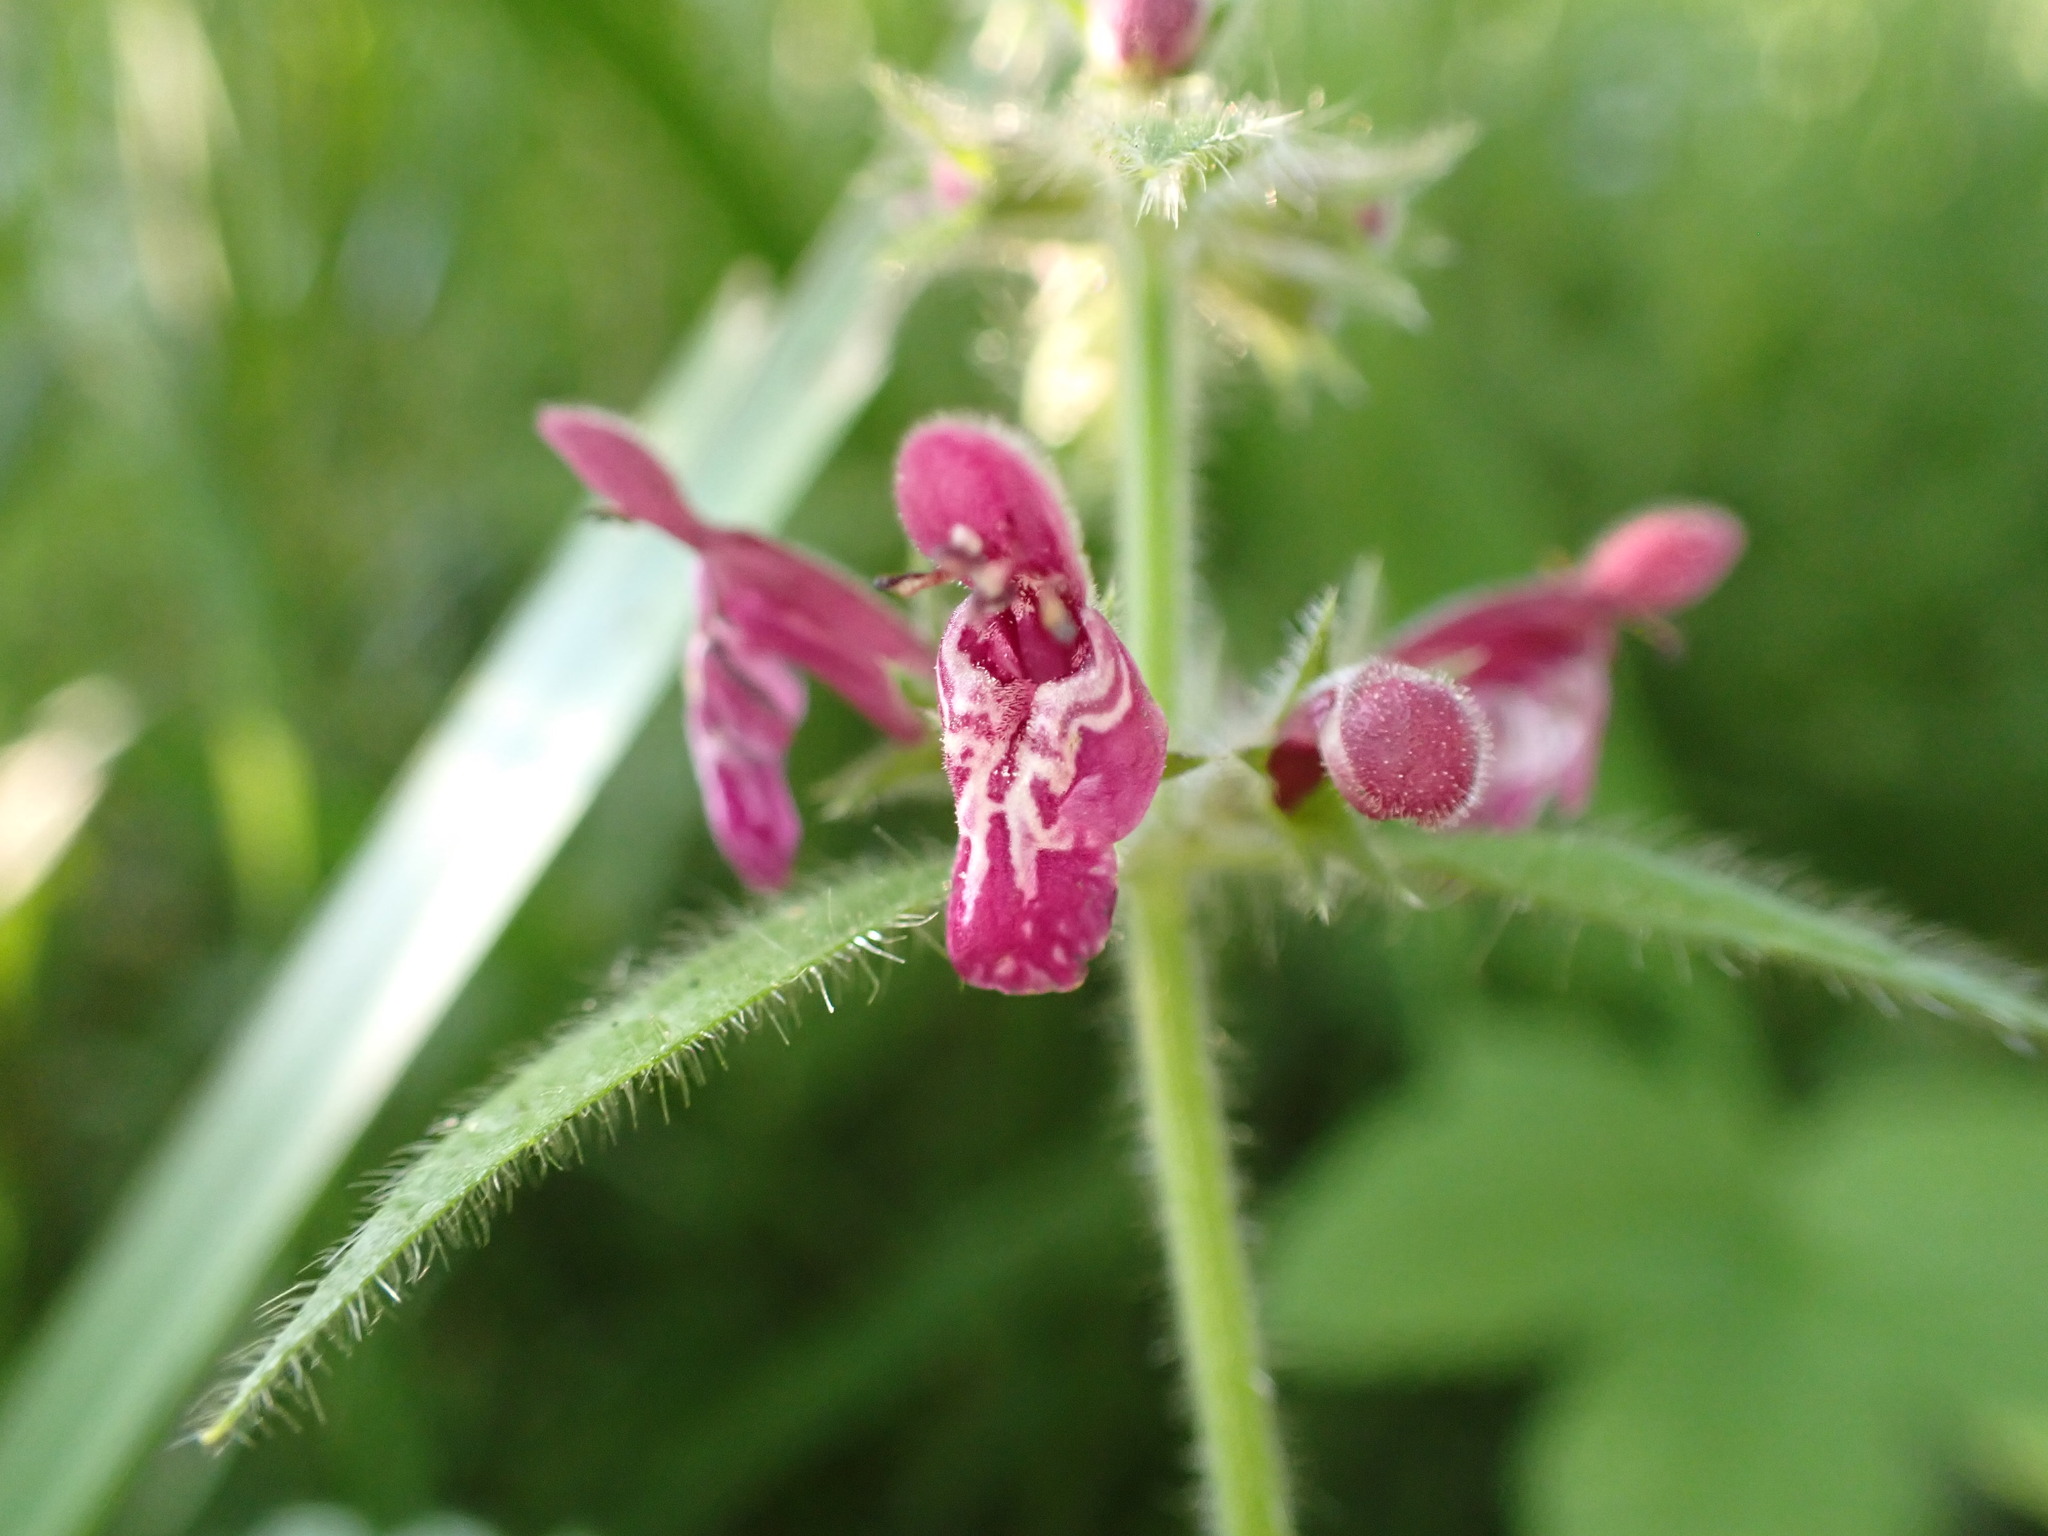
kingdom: Plantae
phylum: Tracheophyta
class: Magnoliopsida
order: Lamiales
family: Lamiaceae
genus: Stachys
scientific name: Stachys sylvatica
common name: Hedge woundwort
